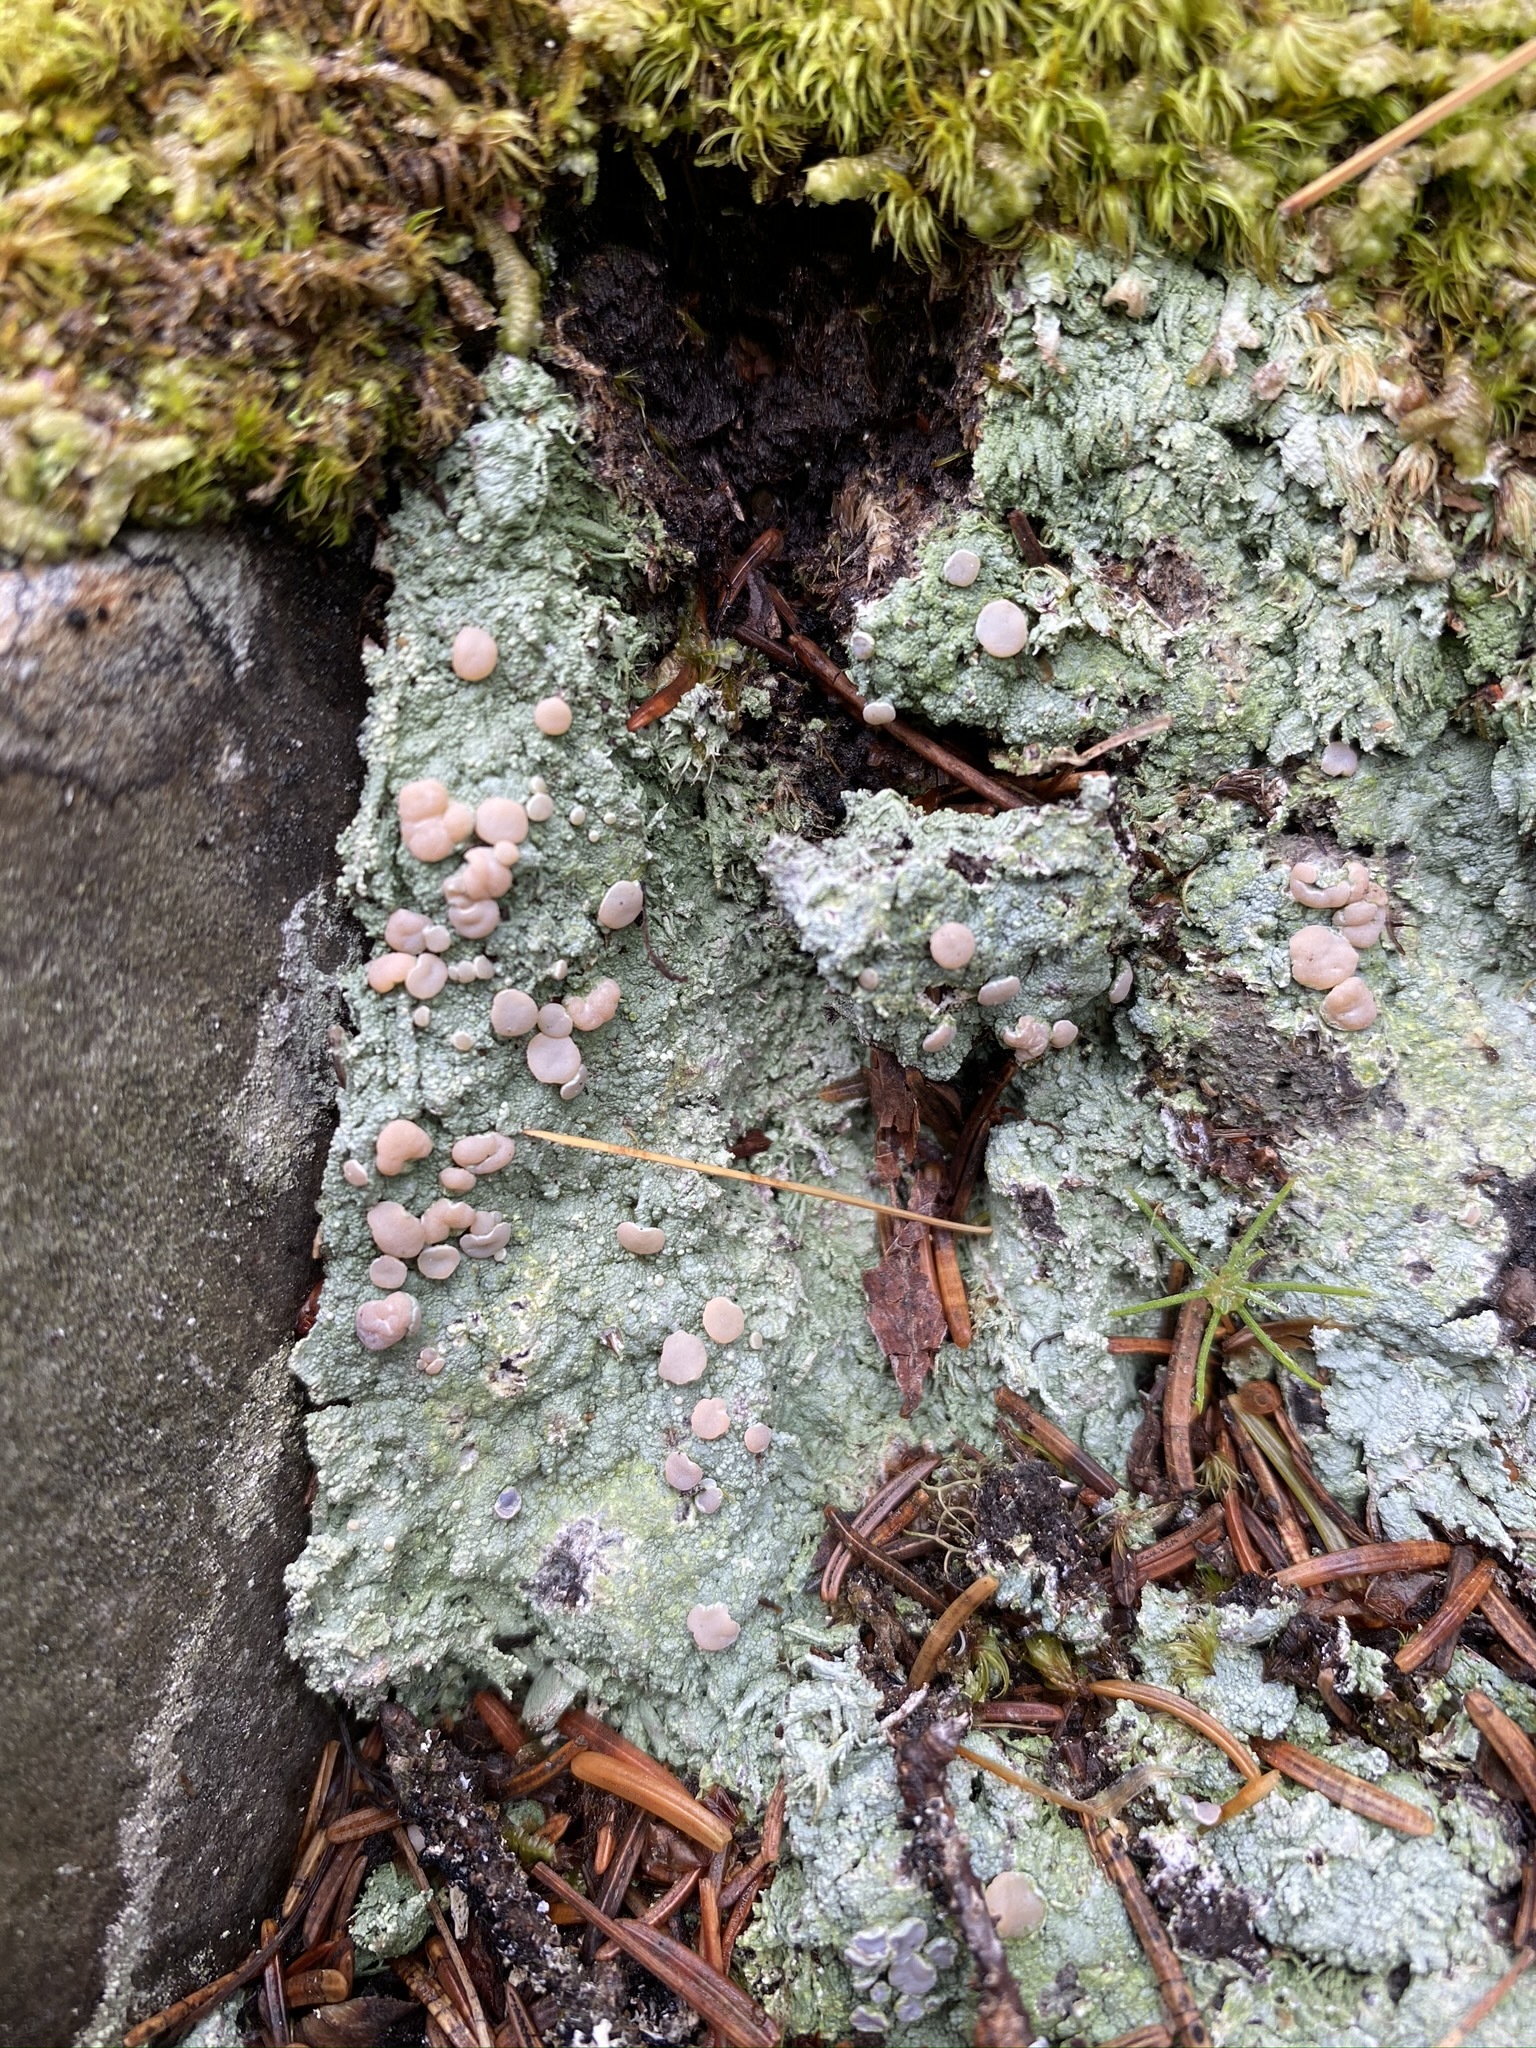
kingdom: Fungi
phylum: Ascomycota
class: Lecanoromycetes
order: Pertusariales
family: Icmadophilaceae
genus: Icmadophila
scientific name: Icmadophila ericetorum
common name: Candy lichen
